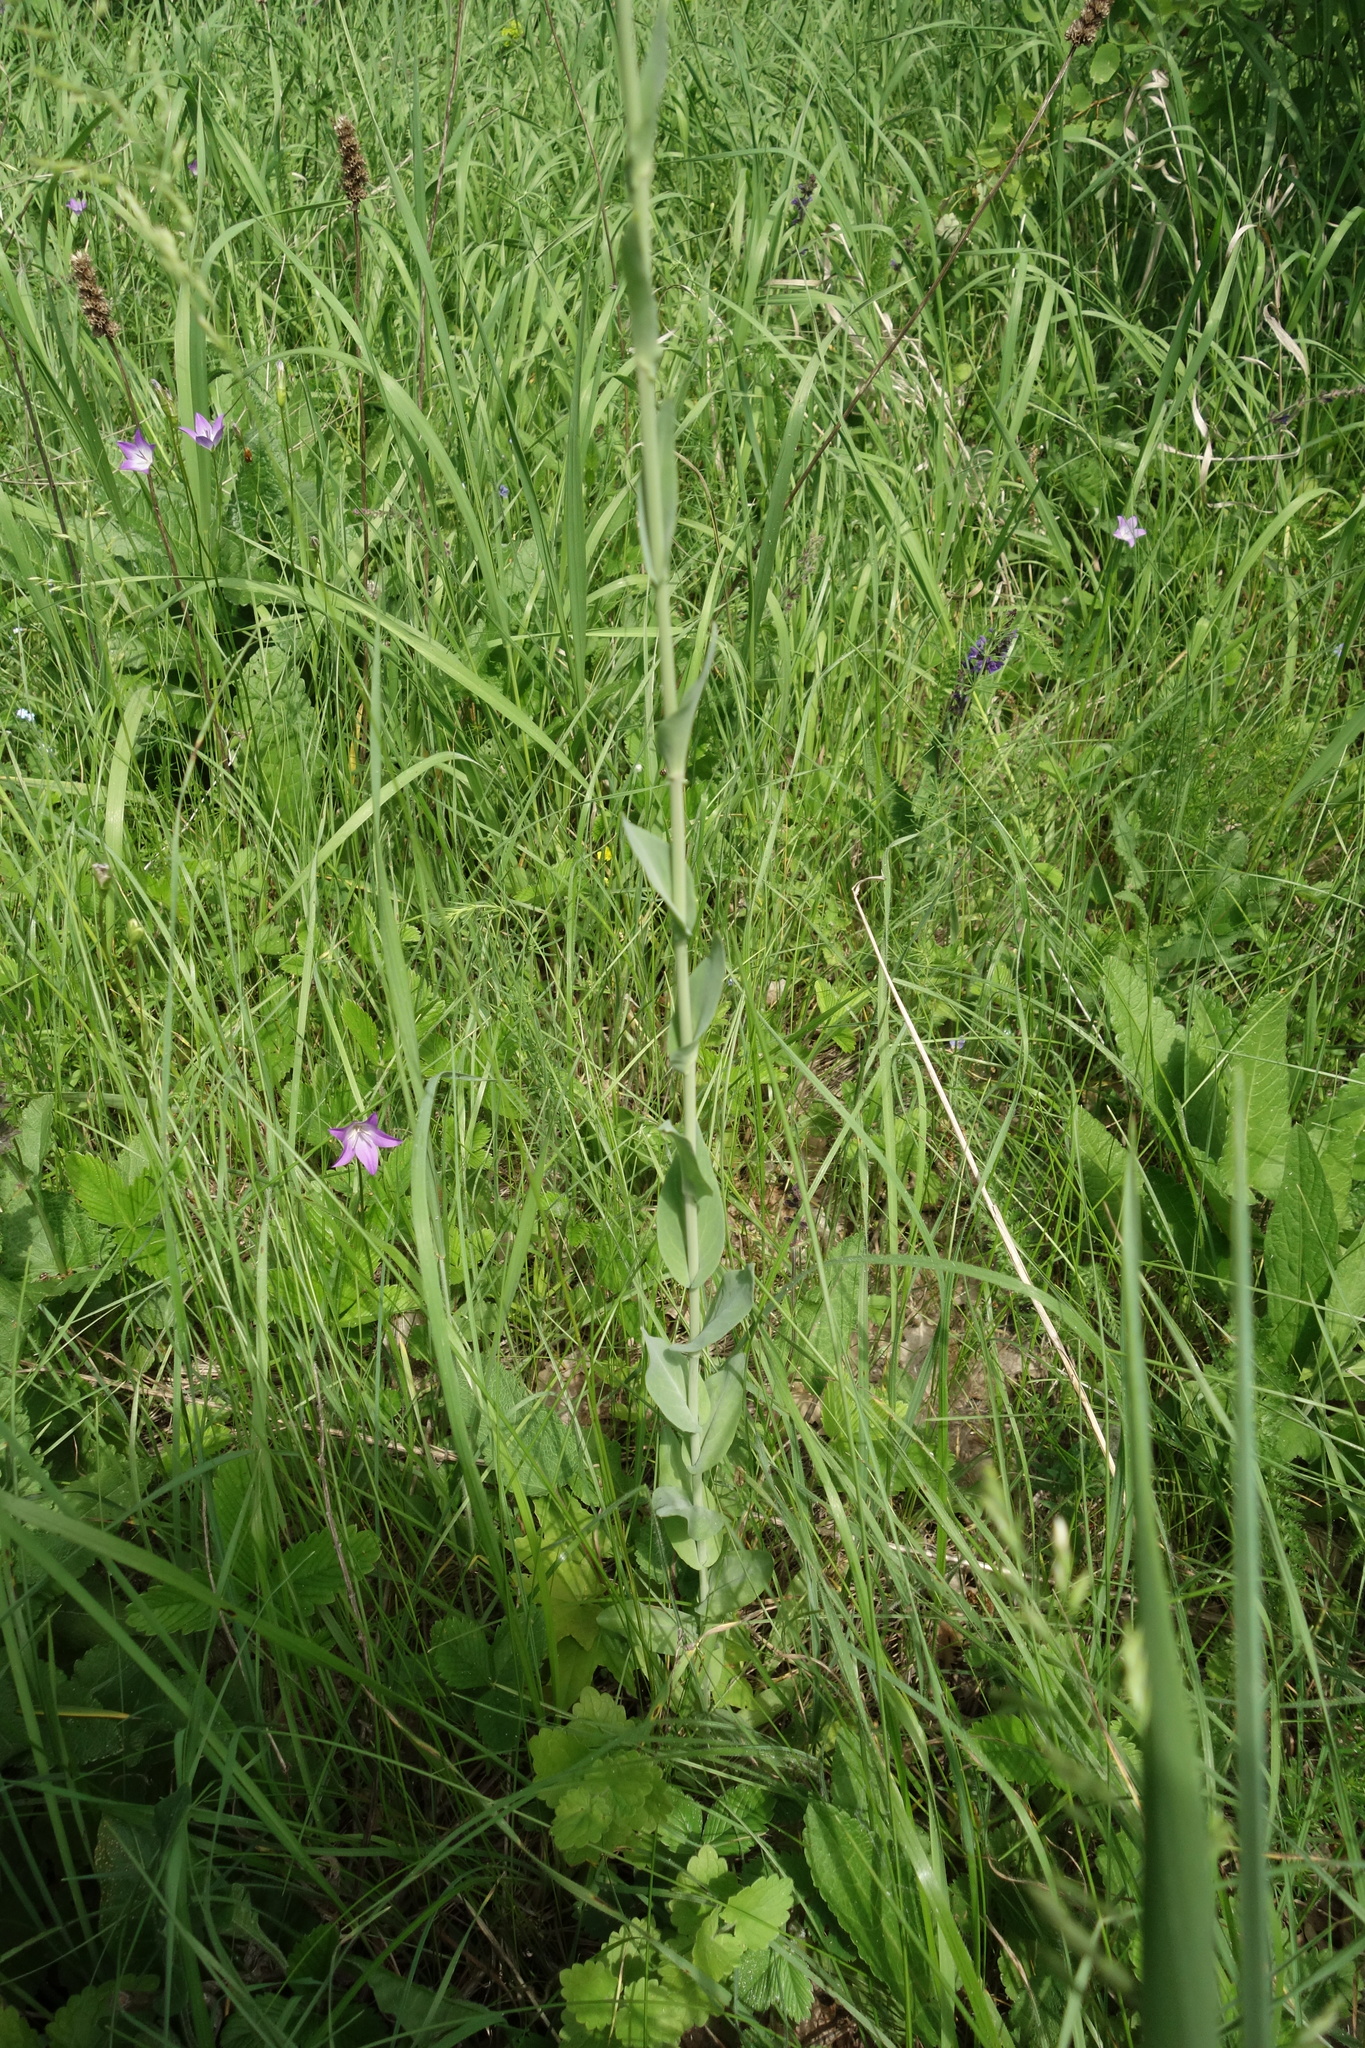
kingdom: Plantae
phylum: Tracheophyta
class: Magnoliopsida
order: Brassicales
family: Brassicaceae
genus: Turritis
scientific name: Turritis glabra
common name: Tower rockcress
